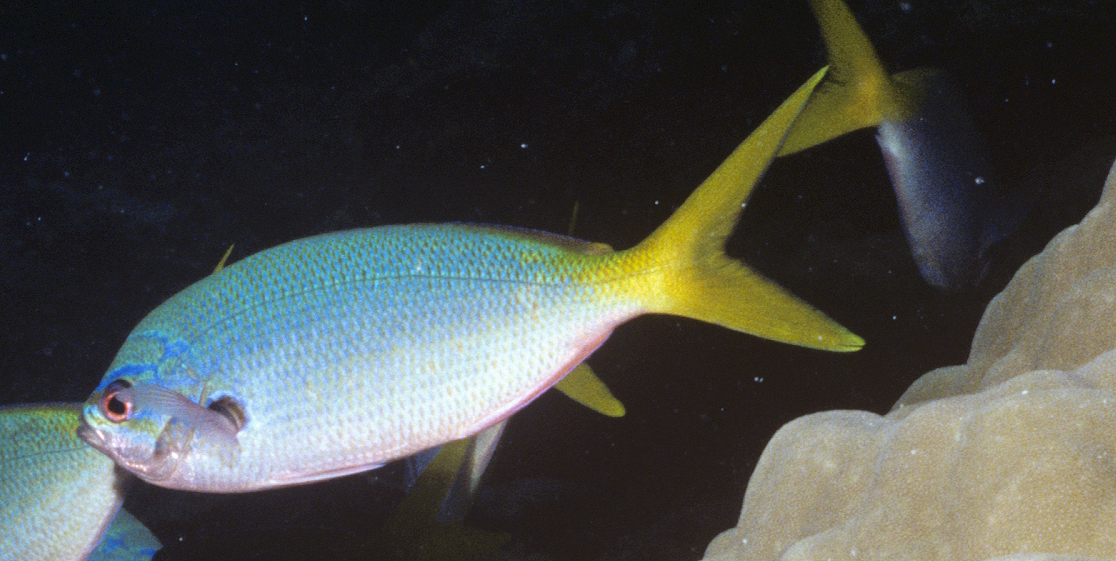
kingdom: Animalia
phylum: Chordata
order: Perciformes
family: Caesionidae
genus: Caesio
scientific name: Caesio cuning
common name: Red-bellied fusilier
